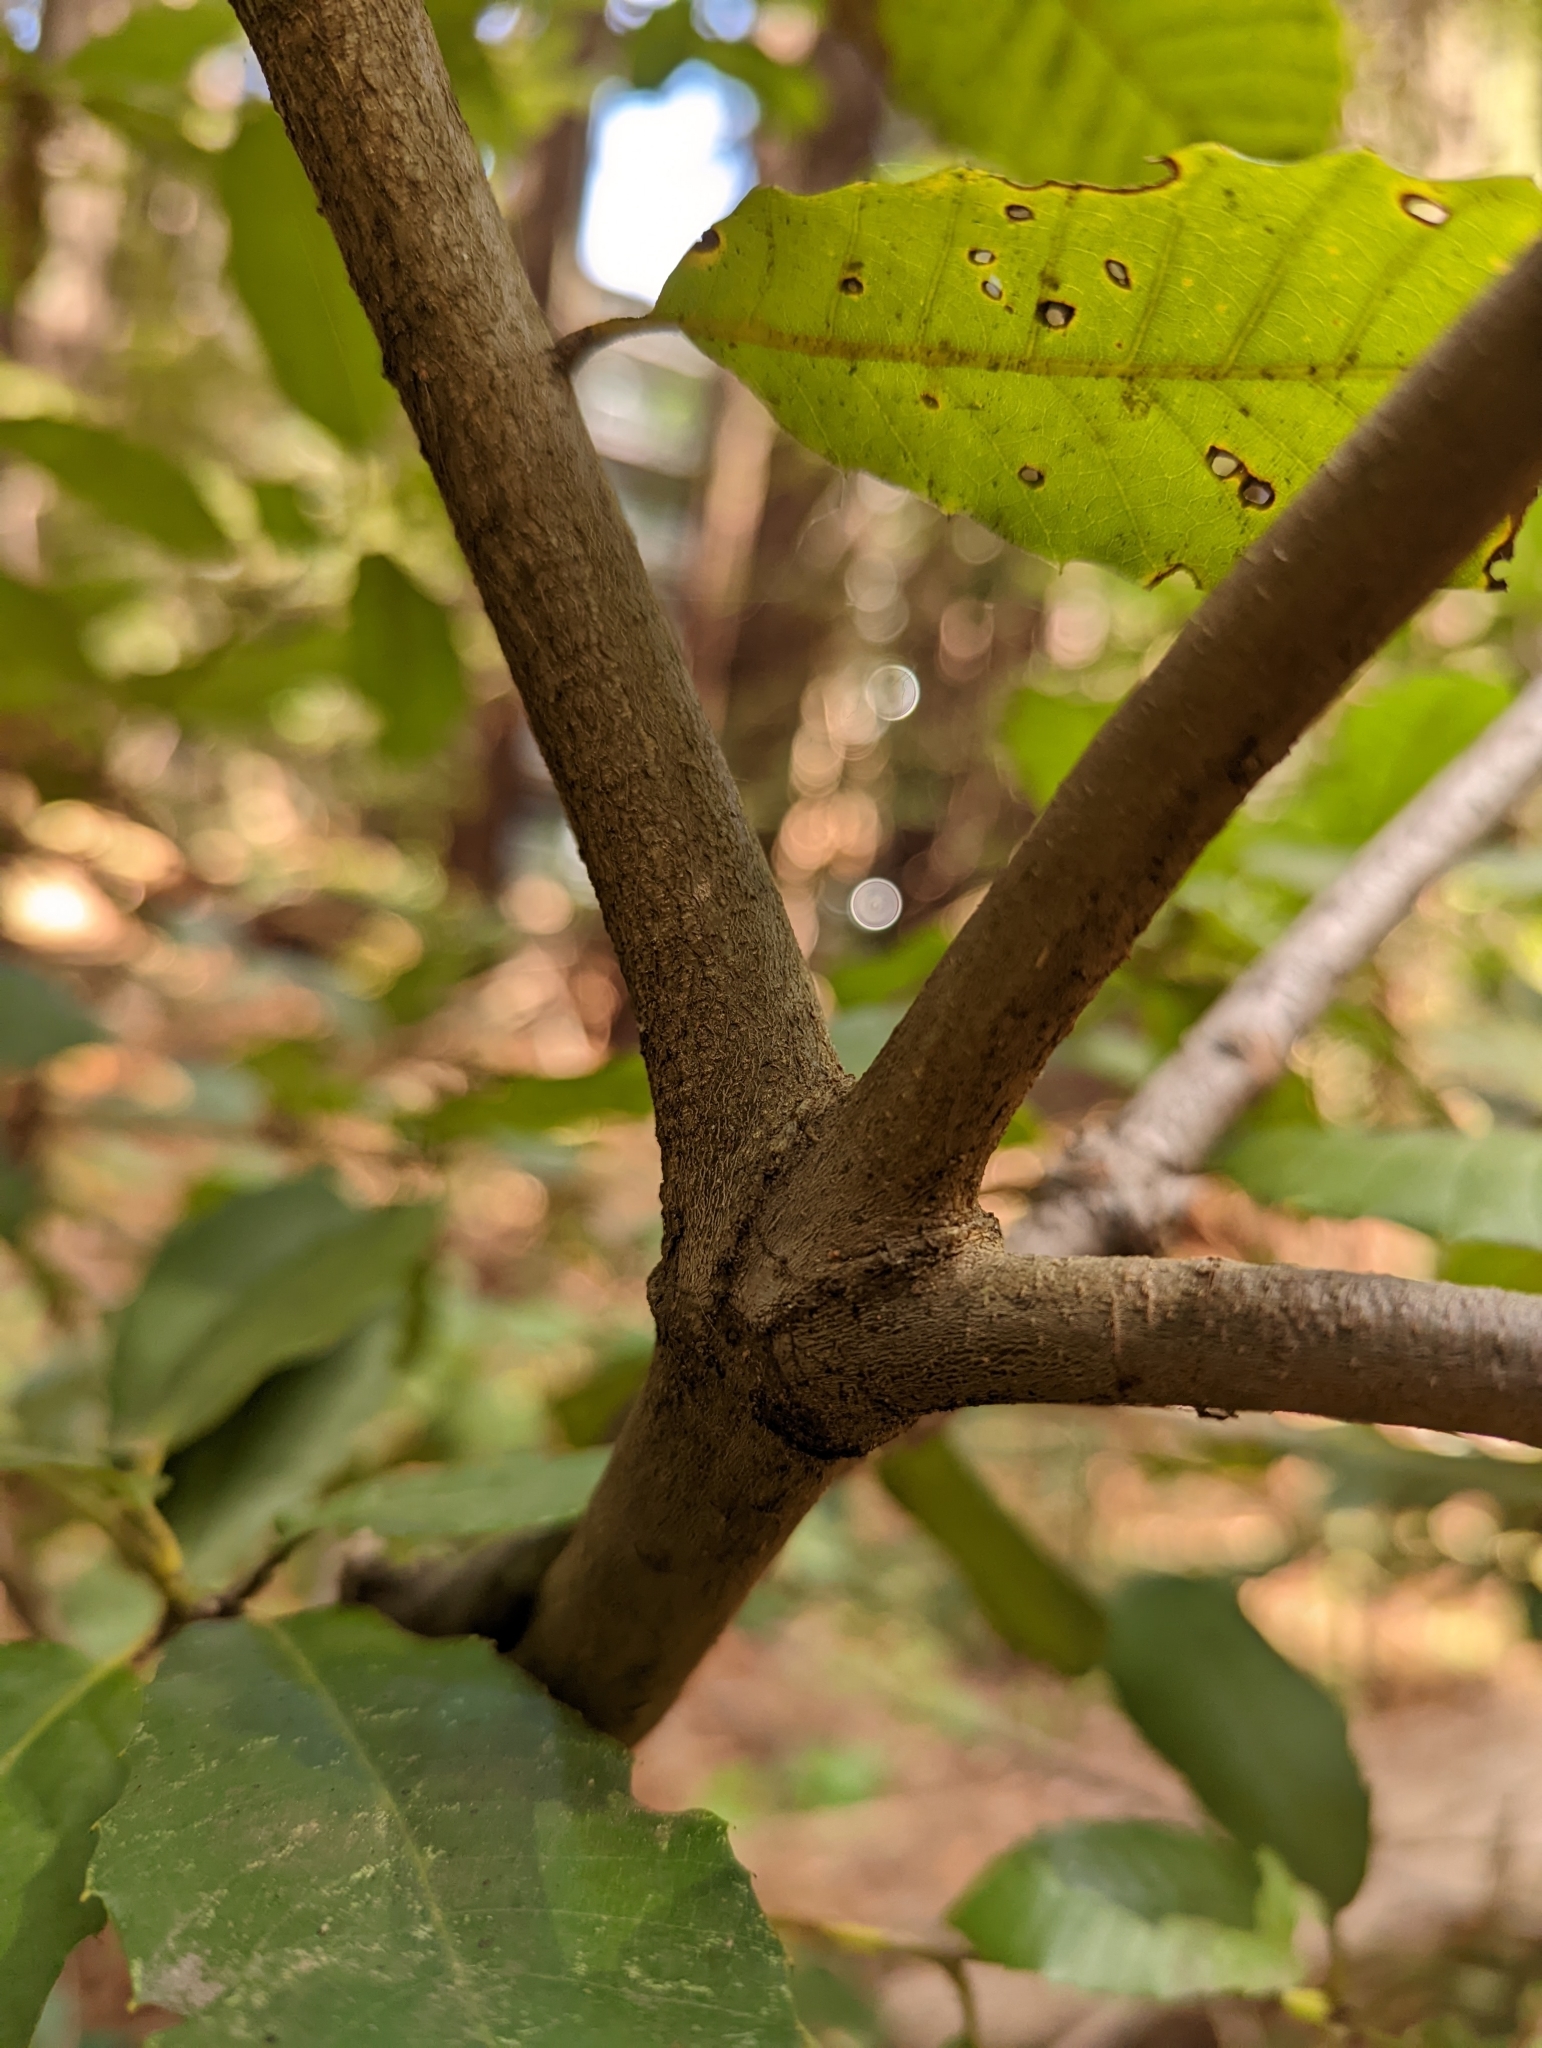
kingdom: Plantae
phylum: Tracheophyta
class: Magnoliopsida
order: Fagales
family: Fagaceae
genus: Notholithocarpus
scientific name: Notholithocarpus densiflorus
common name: Tan bark oak
